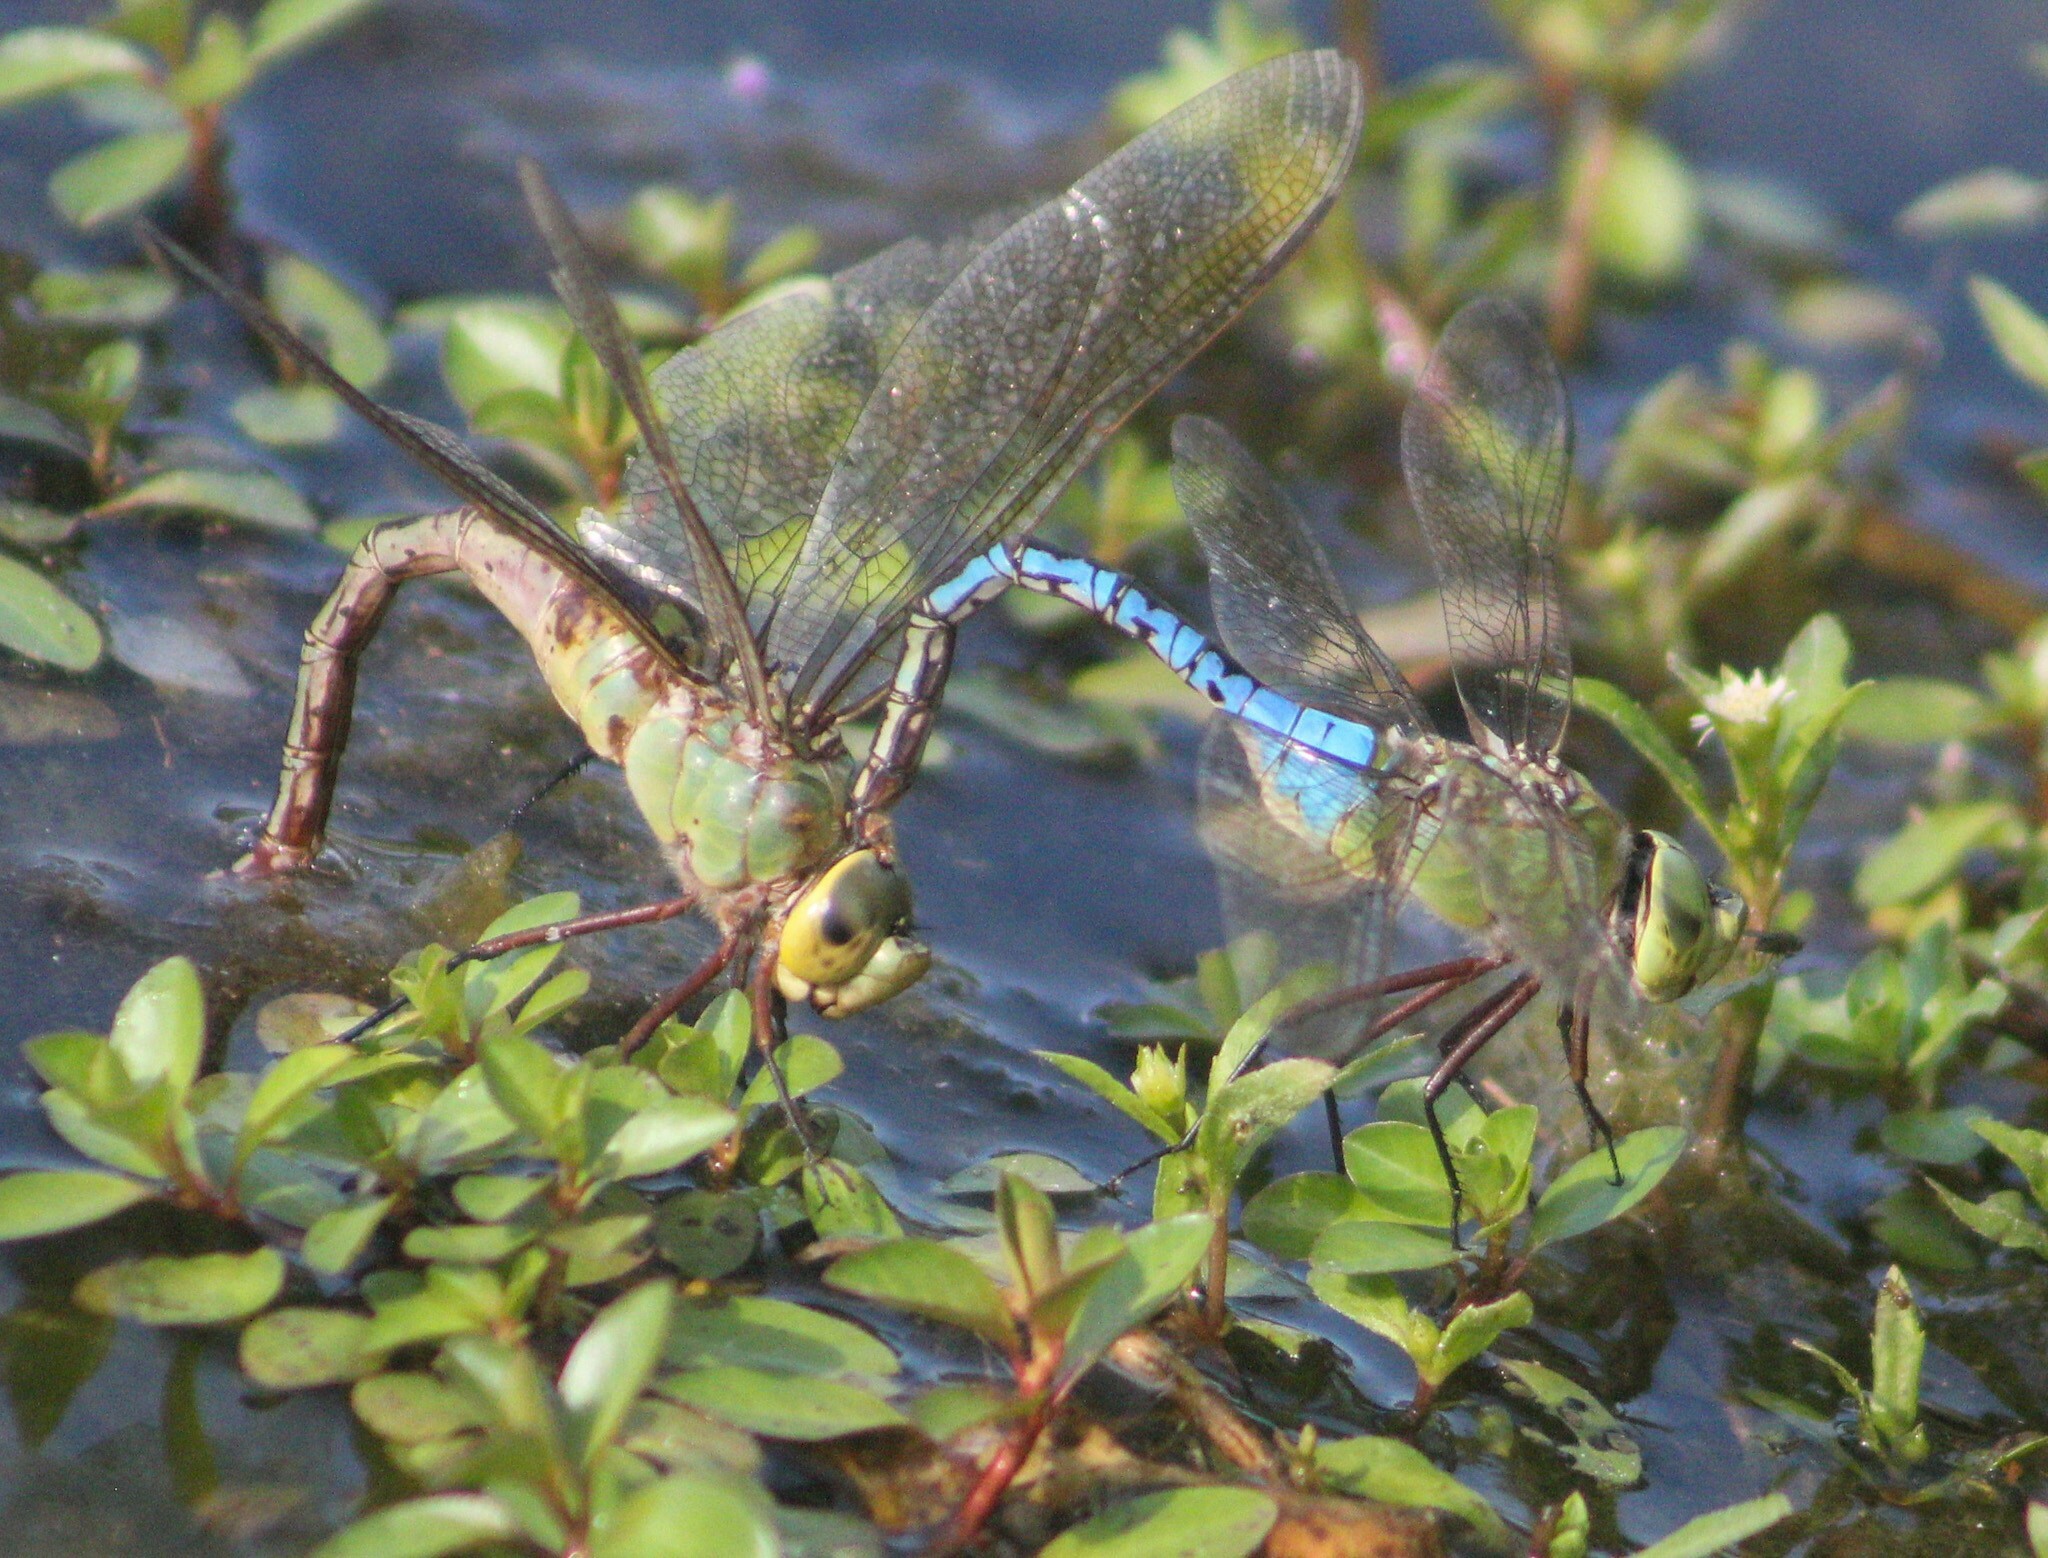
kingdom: Animalia
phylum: Arthropoda
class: Insecta
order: Odonata
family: Aeshnidae
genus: Anax
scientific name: Anax junius
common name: Common green darner
